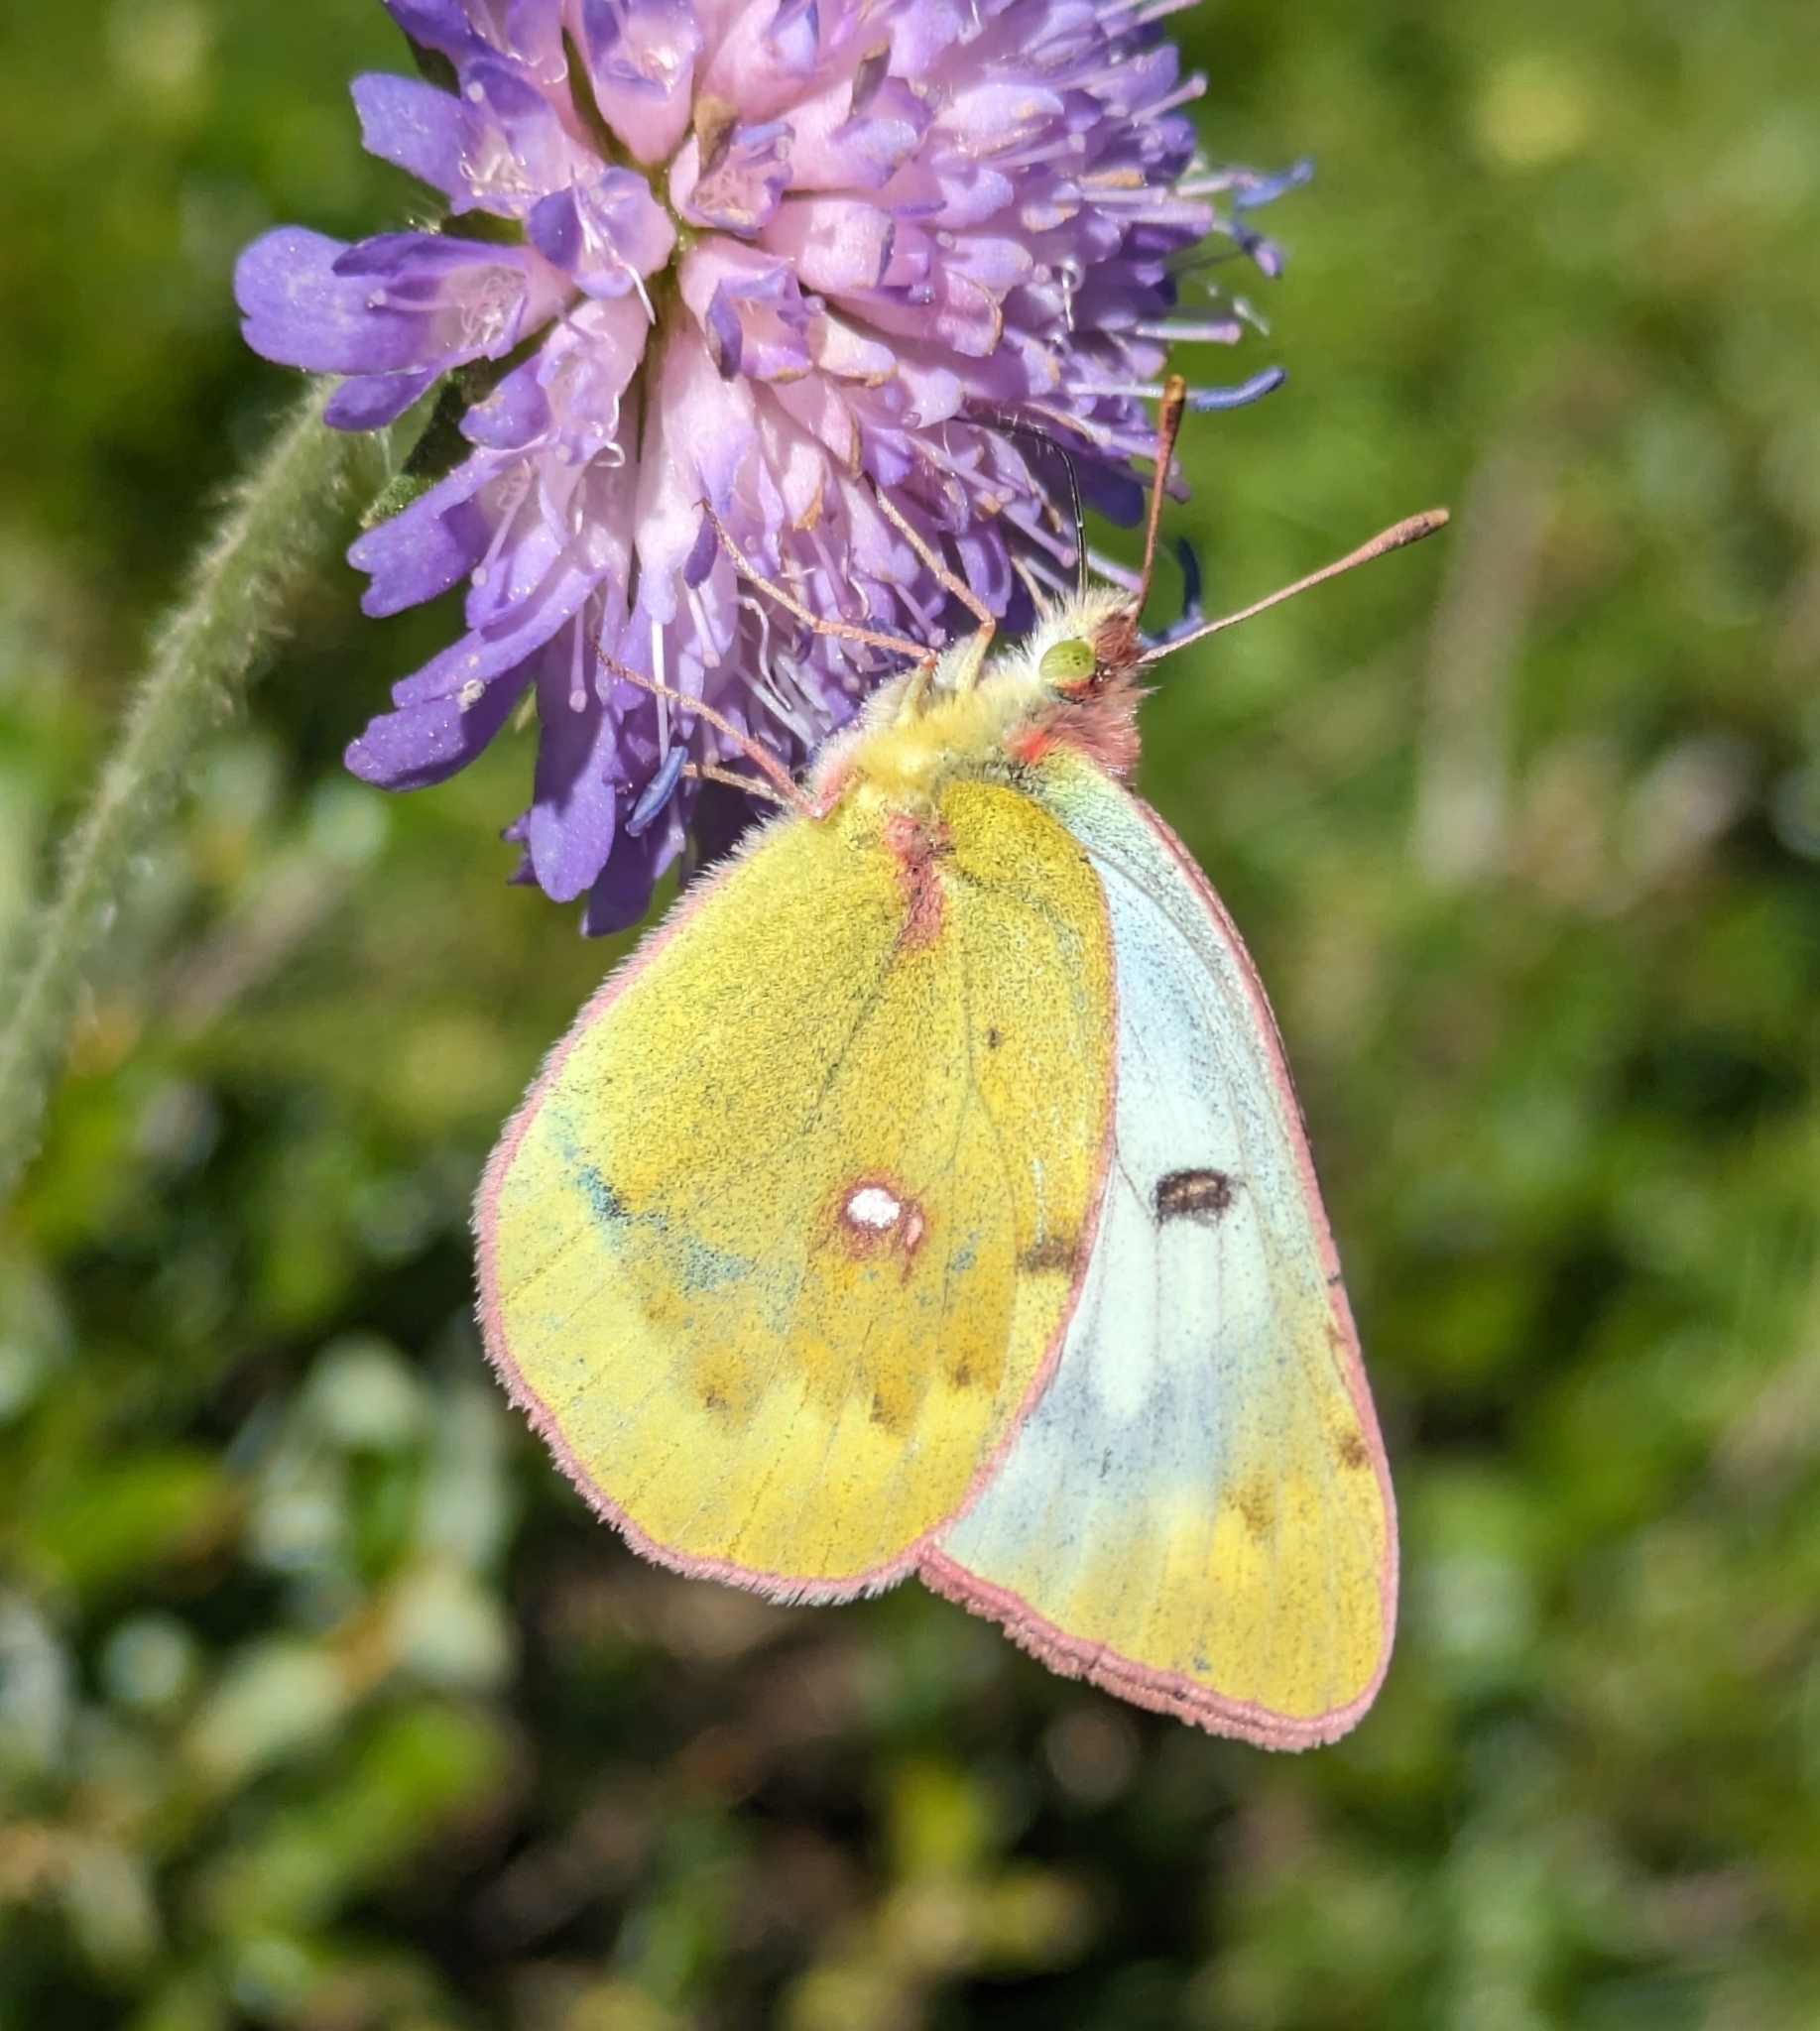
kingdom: Animalia
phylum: Arthropoda
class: Insecta
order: Lepidoptera
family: Pieridae
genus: Colias
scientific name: Colias phicomone
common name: Mountain clouded yellow
